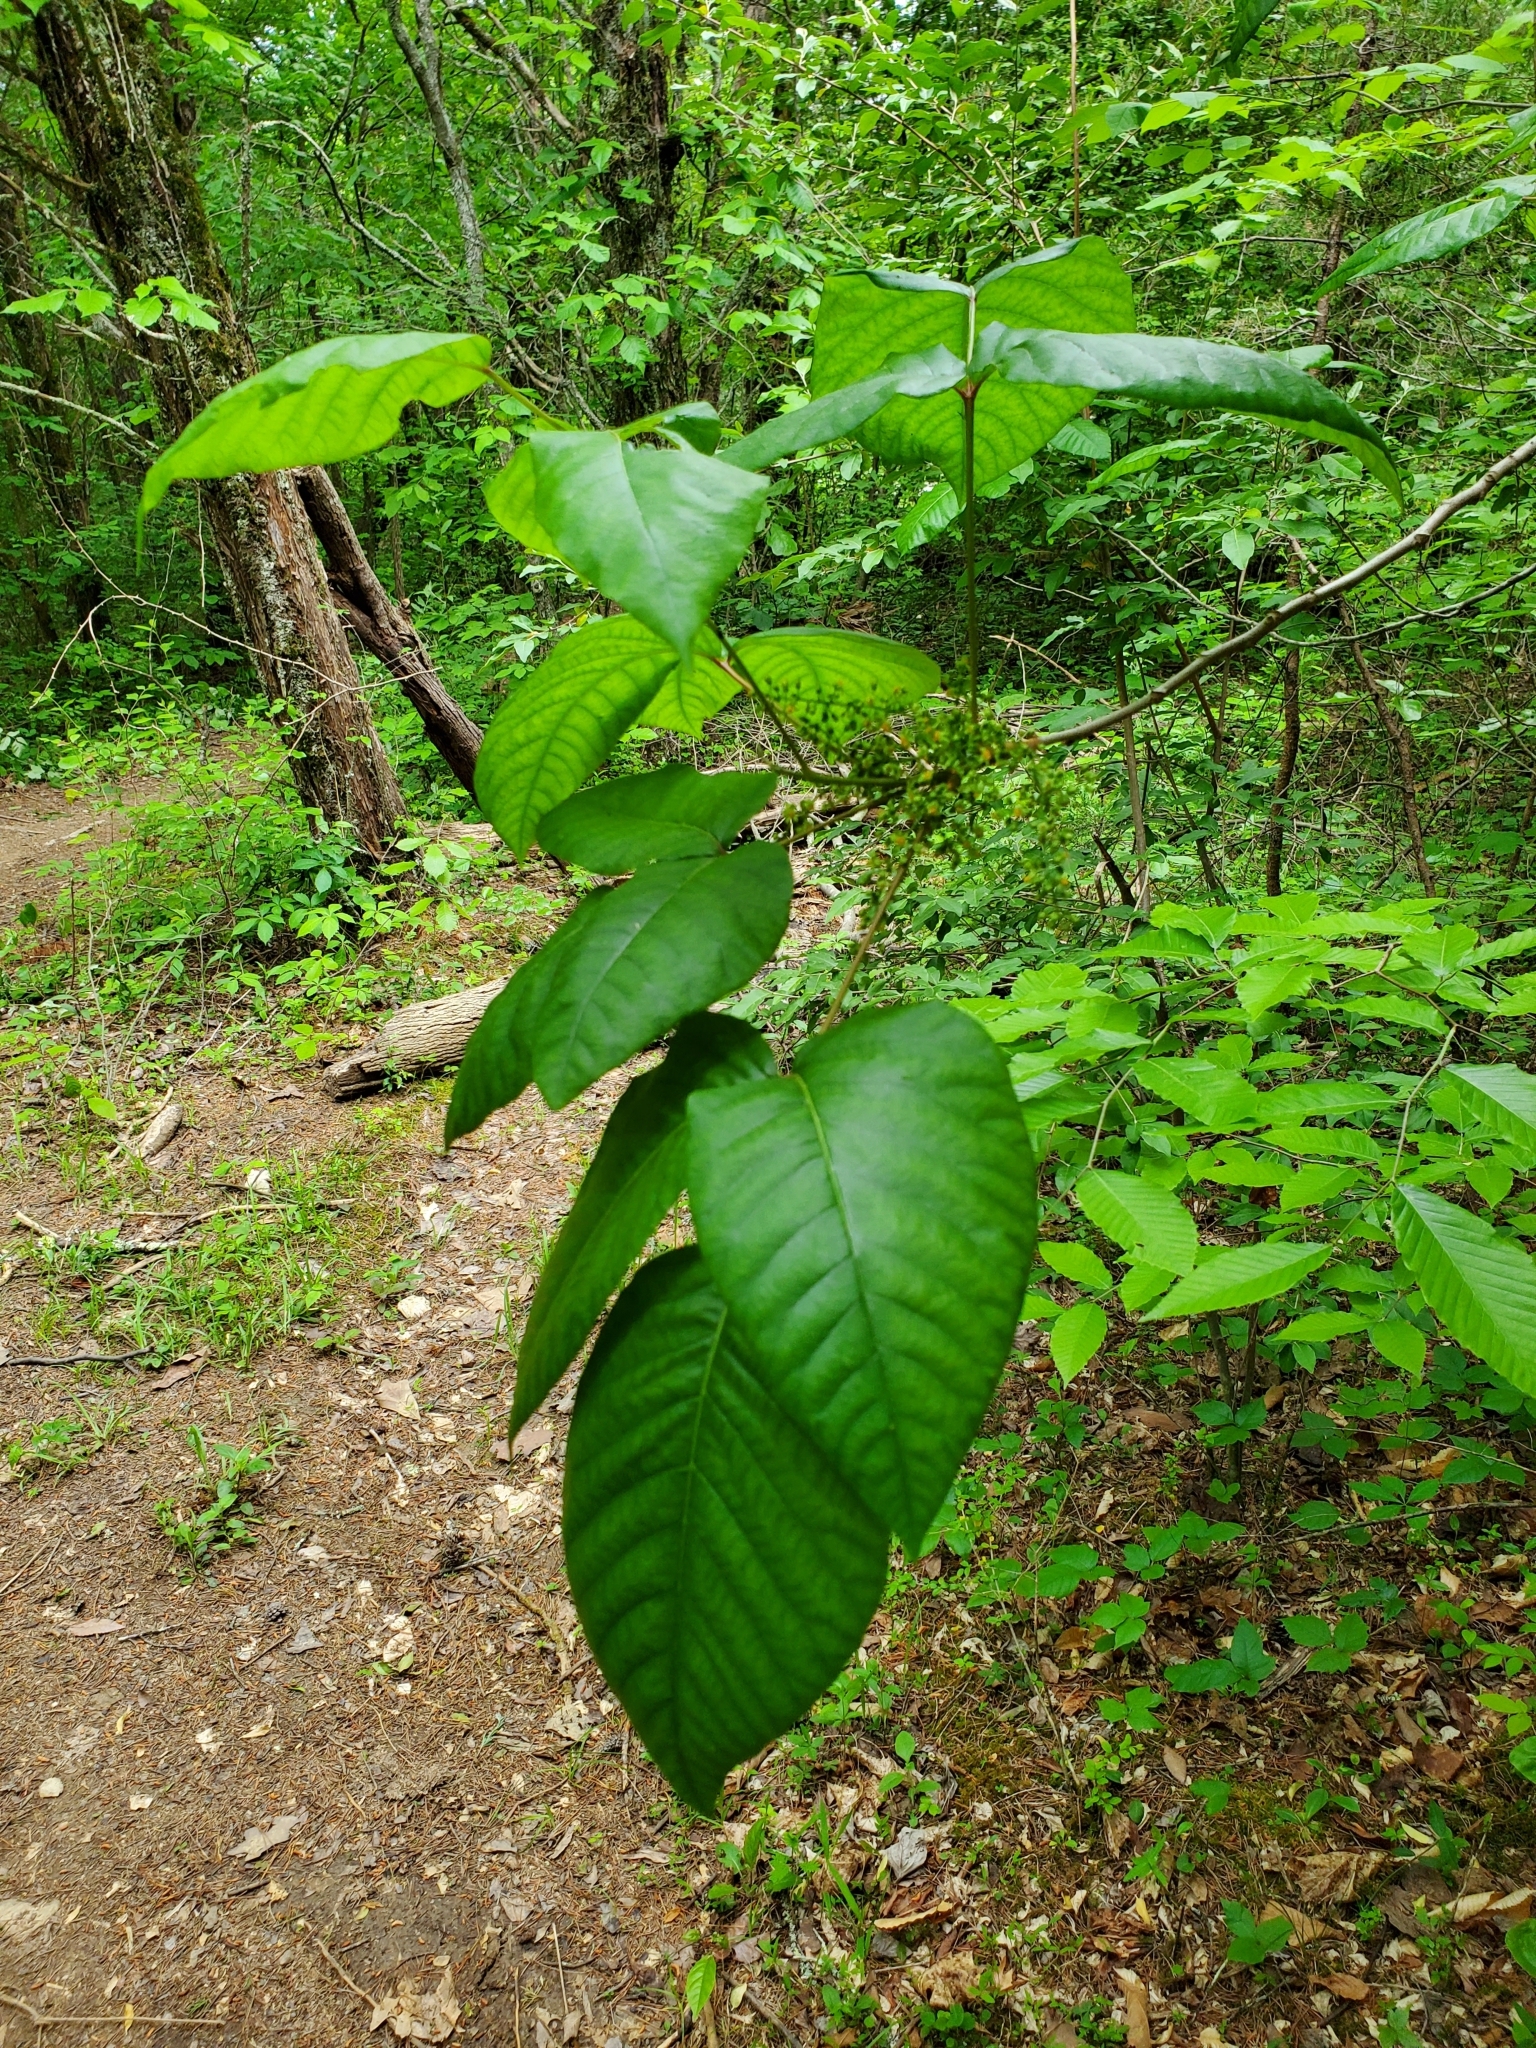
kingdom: Plantae
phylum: Tracheophyta
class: Magnoliopsida
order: Sapindales
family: Anacardiaceae
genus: Toxicodendron
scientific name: Toxicodendron radicans
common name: Poison ivy
